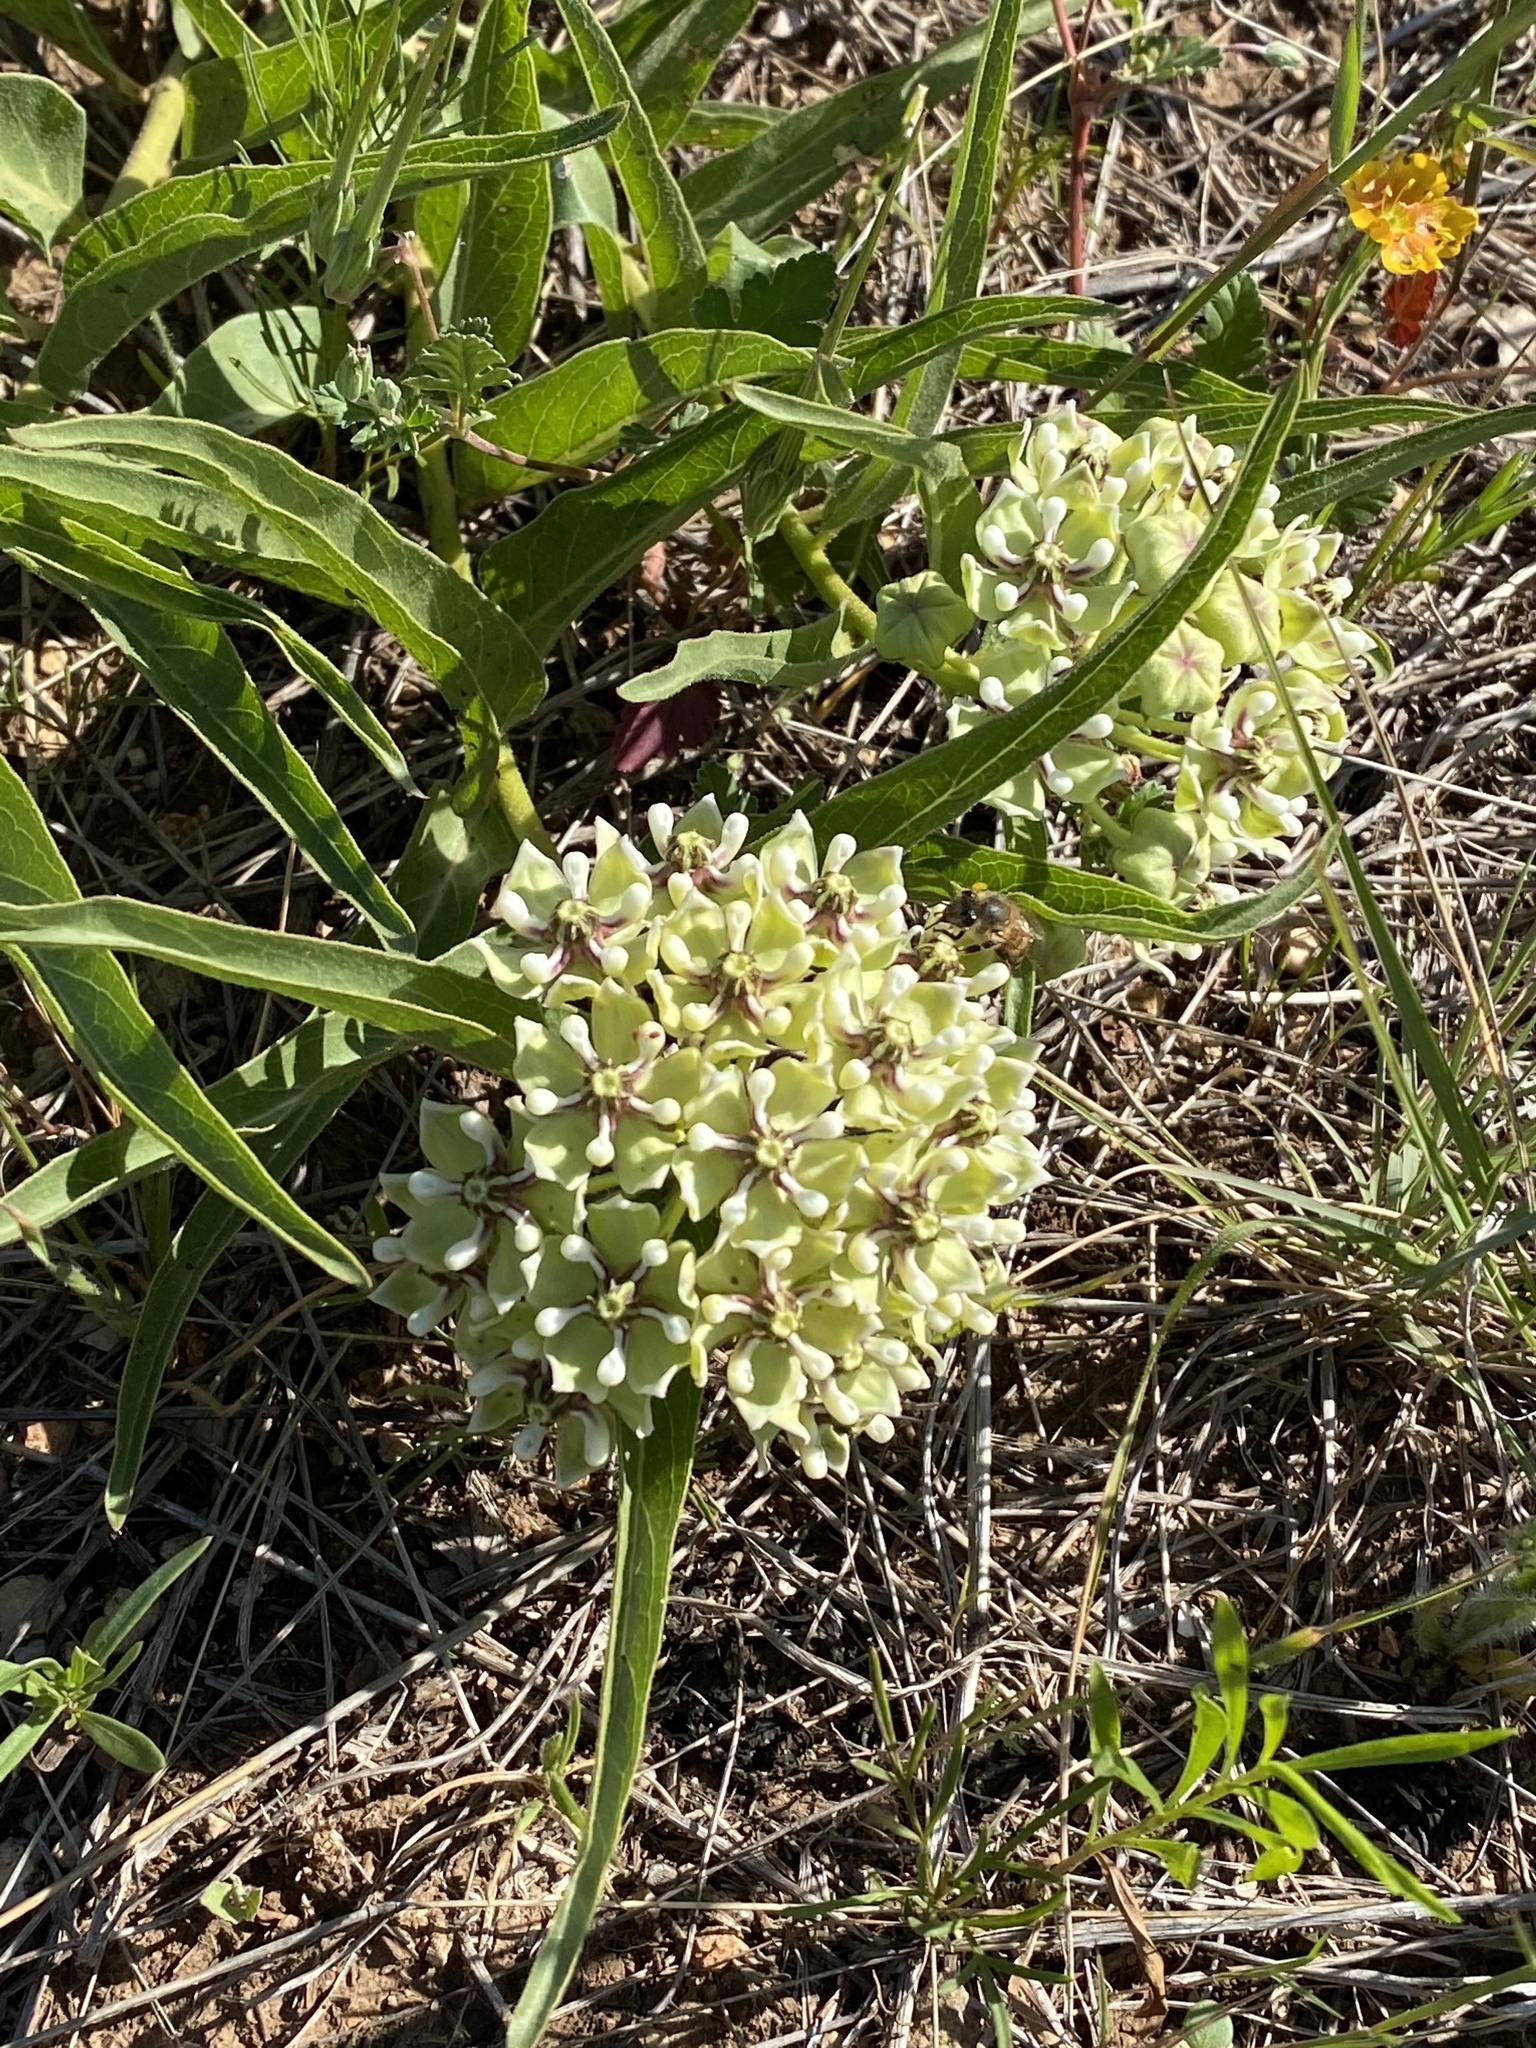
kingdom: Plantae
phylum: Tracheophyta
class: Magnoliopsida
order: Gentianales
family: Apocynaceae
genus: Asclepias
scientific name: Asclepias asperula
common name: Antelope horns
